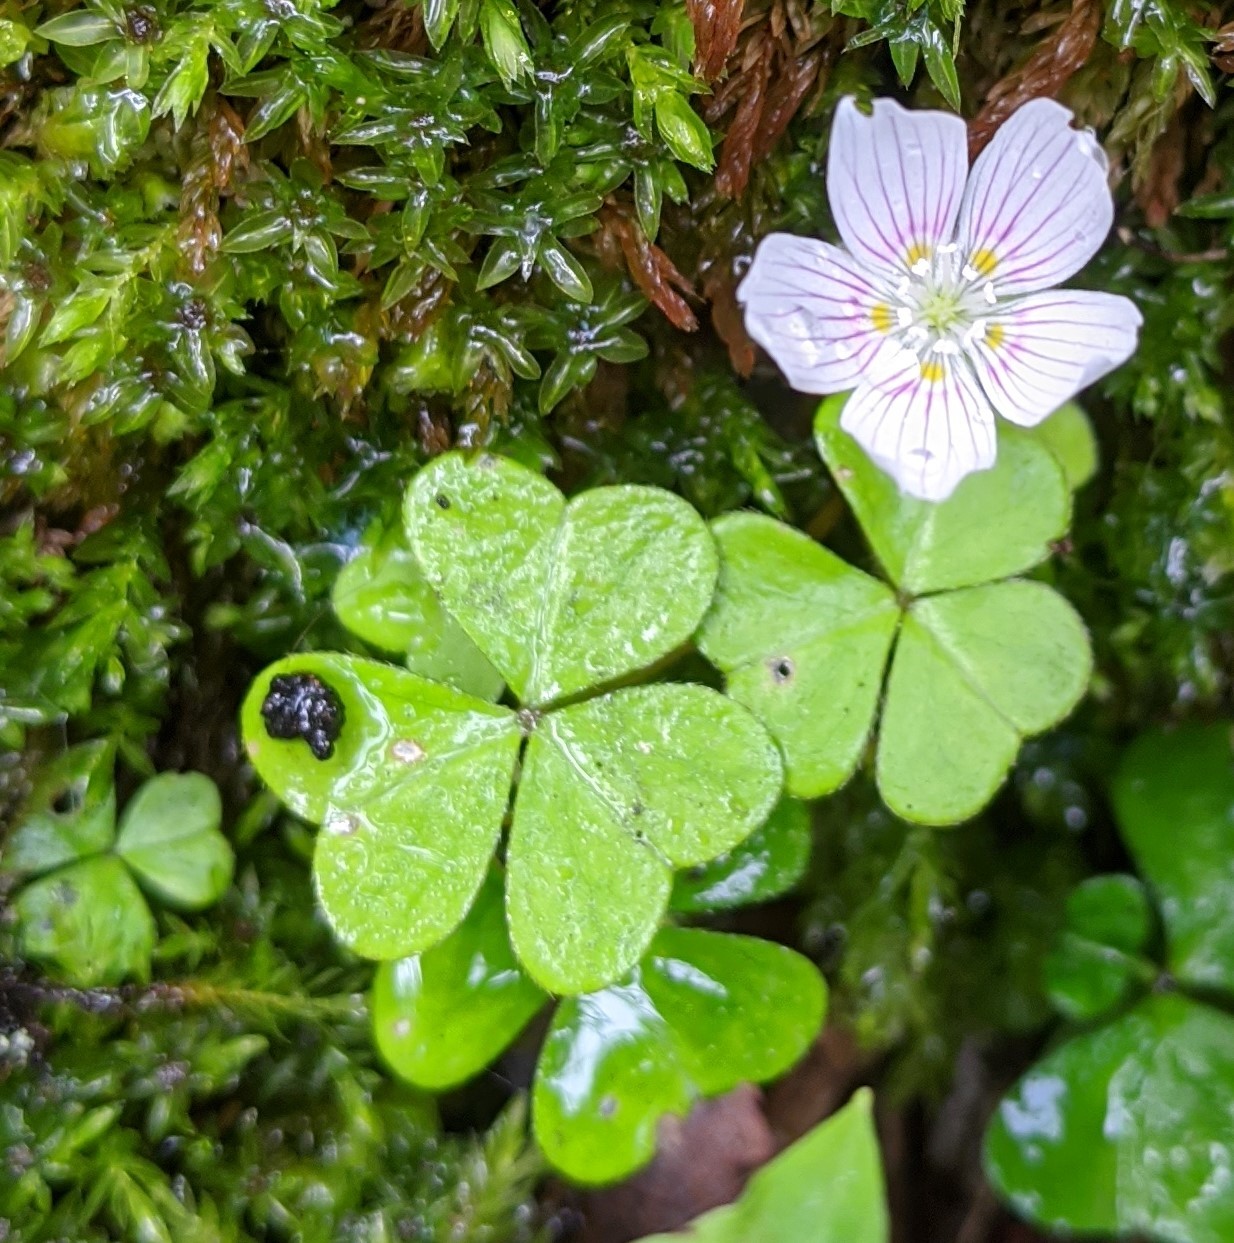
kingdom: Plantae
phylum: Tracheophyta
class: Magnoliopsida
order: Oxalidales
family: Oxalidaceae
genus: Oxalis
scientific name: Oxalis montana
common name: American wood-sorrel
